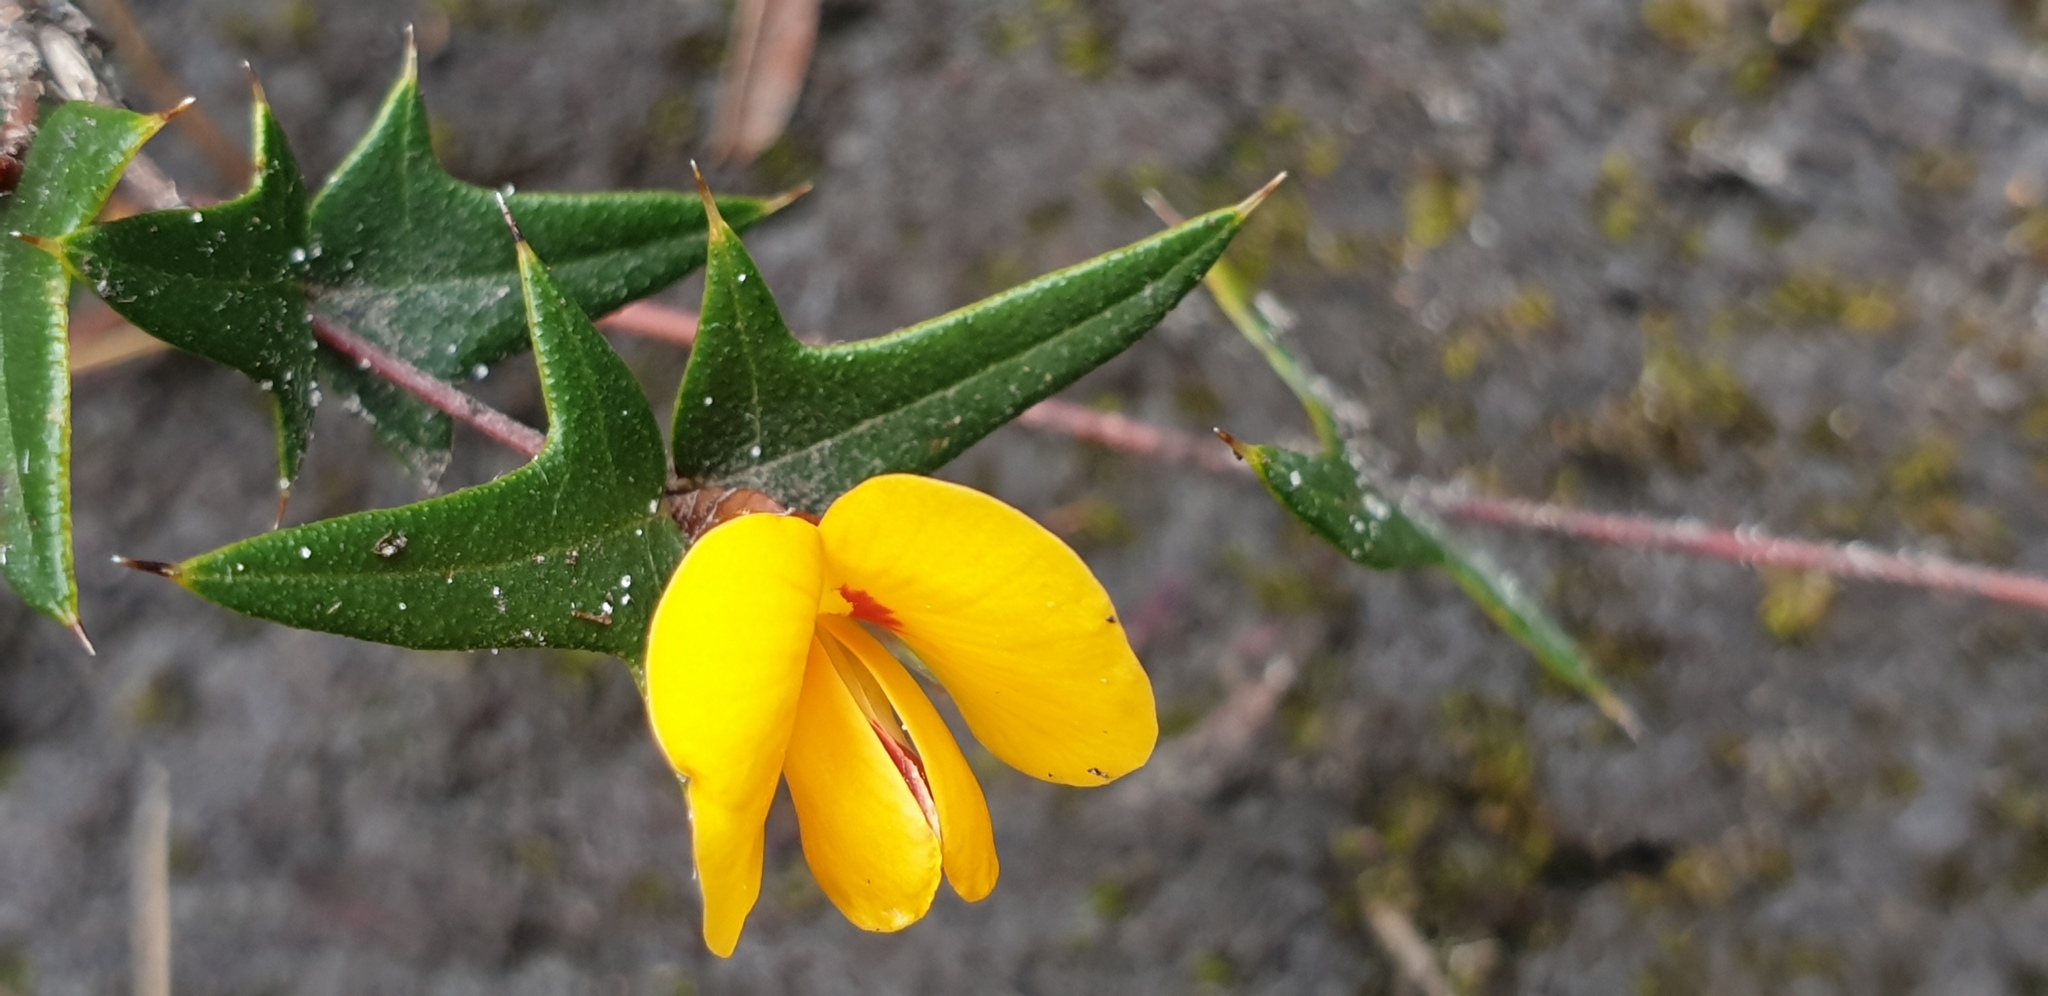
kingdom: Plantae
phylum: Tracheophyta
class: Magnoliopsida
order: Fabales
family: Fabaceae
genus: Platylobium
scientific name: Platylobium obtusangulum
